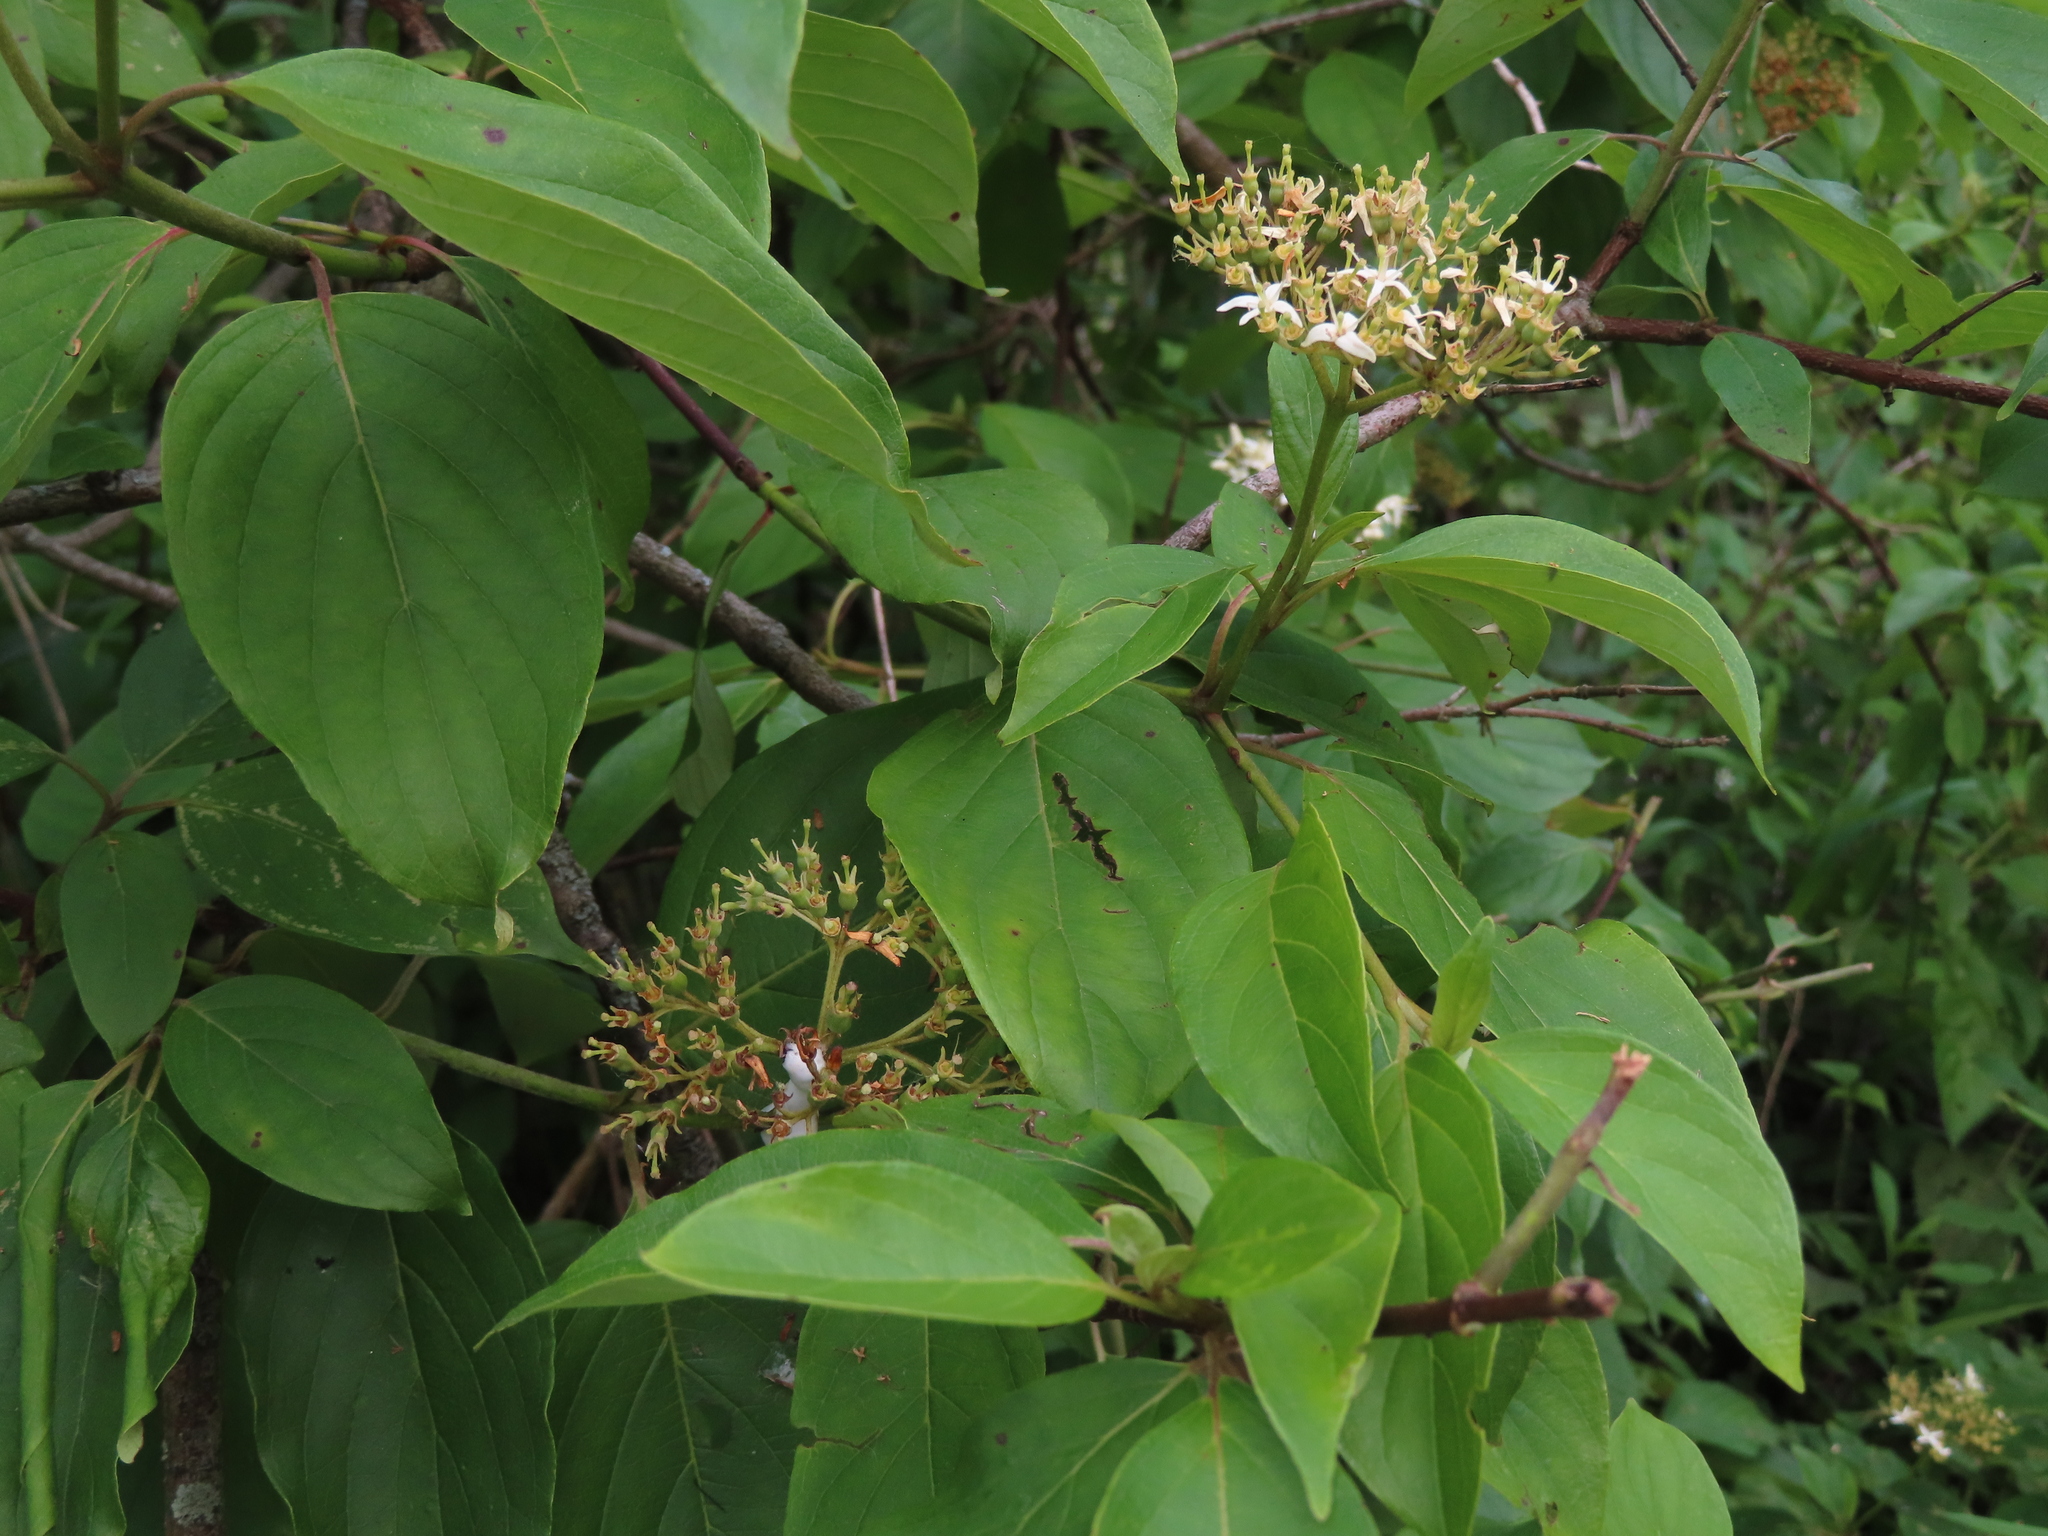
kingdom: Plantae
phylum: Tracheophyta
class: Magnoliopsida
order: Cornales
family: Cornaceae
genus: Cornus
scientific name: Cornus amomum
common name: Silky dogwood
